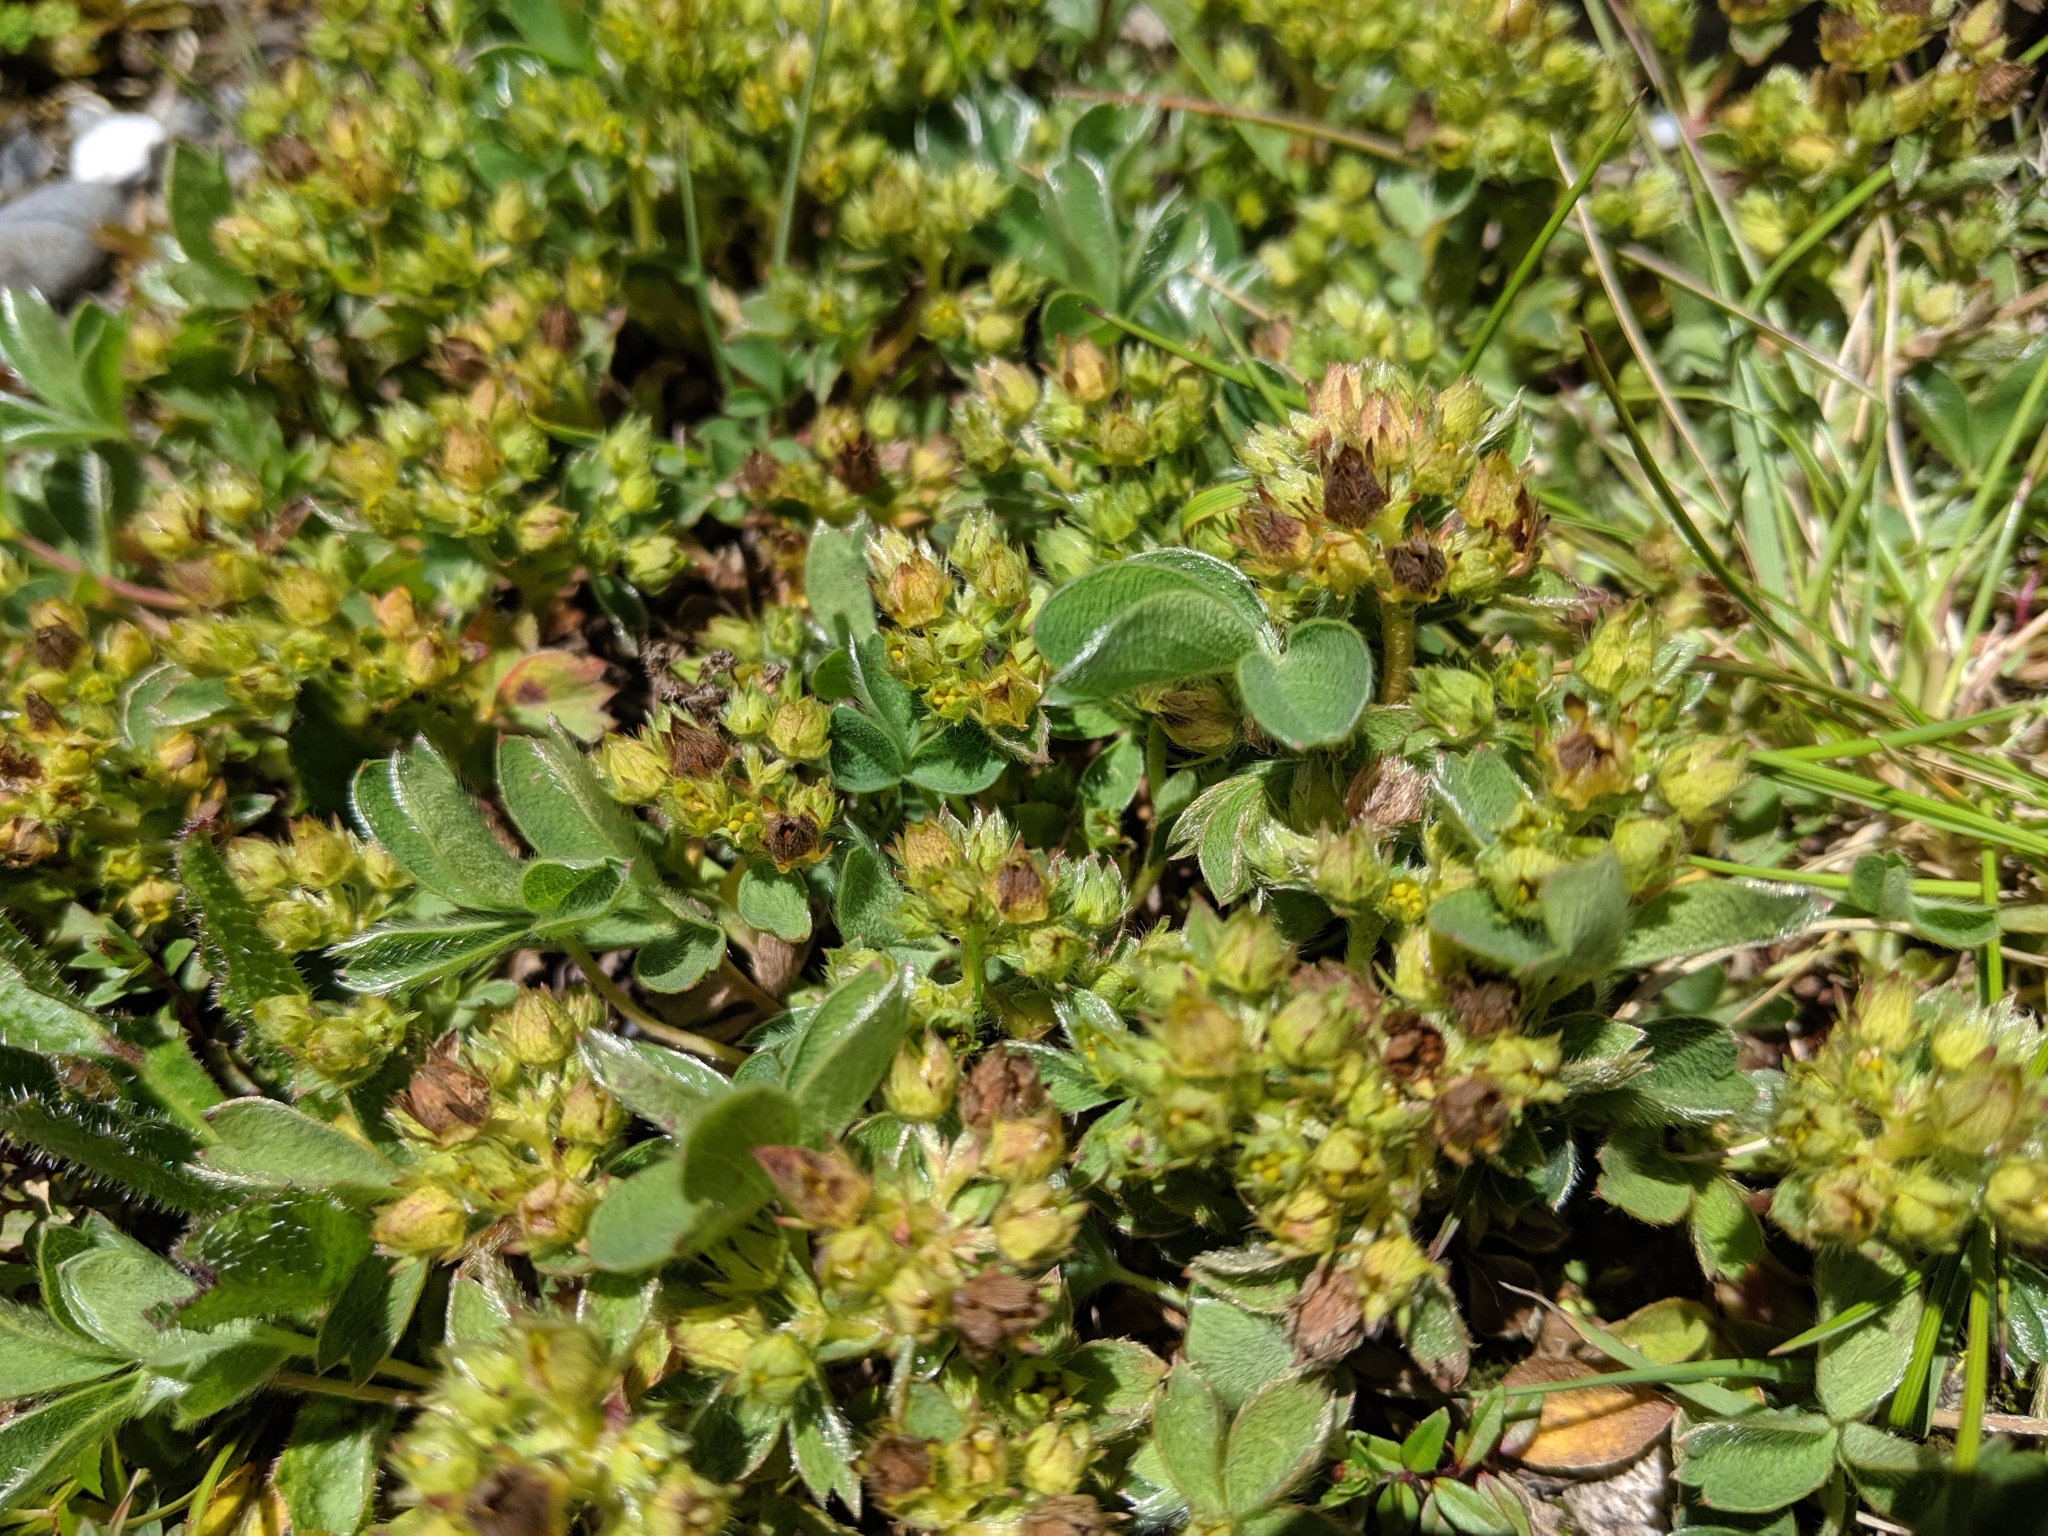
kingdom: Plantae
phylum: Tracheophyta
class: Magnoliopsida
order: Rosales
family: Rosaceae
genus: Sibbaldia
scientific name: Sibbaldia procumbens
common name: Creeping sibbaldia
